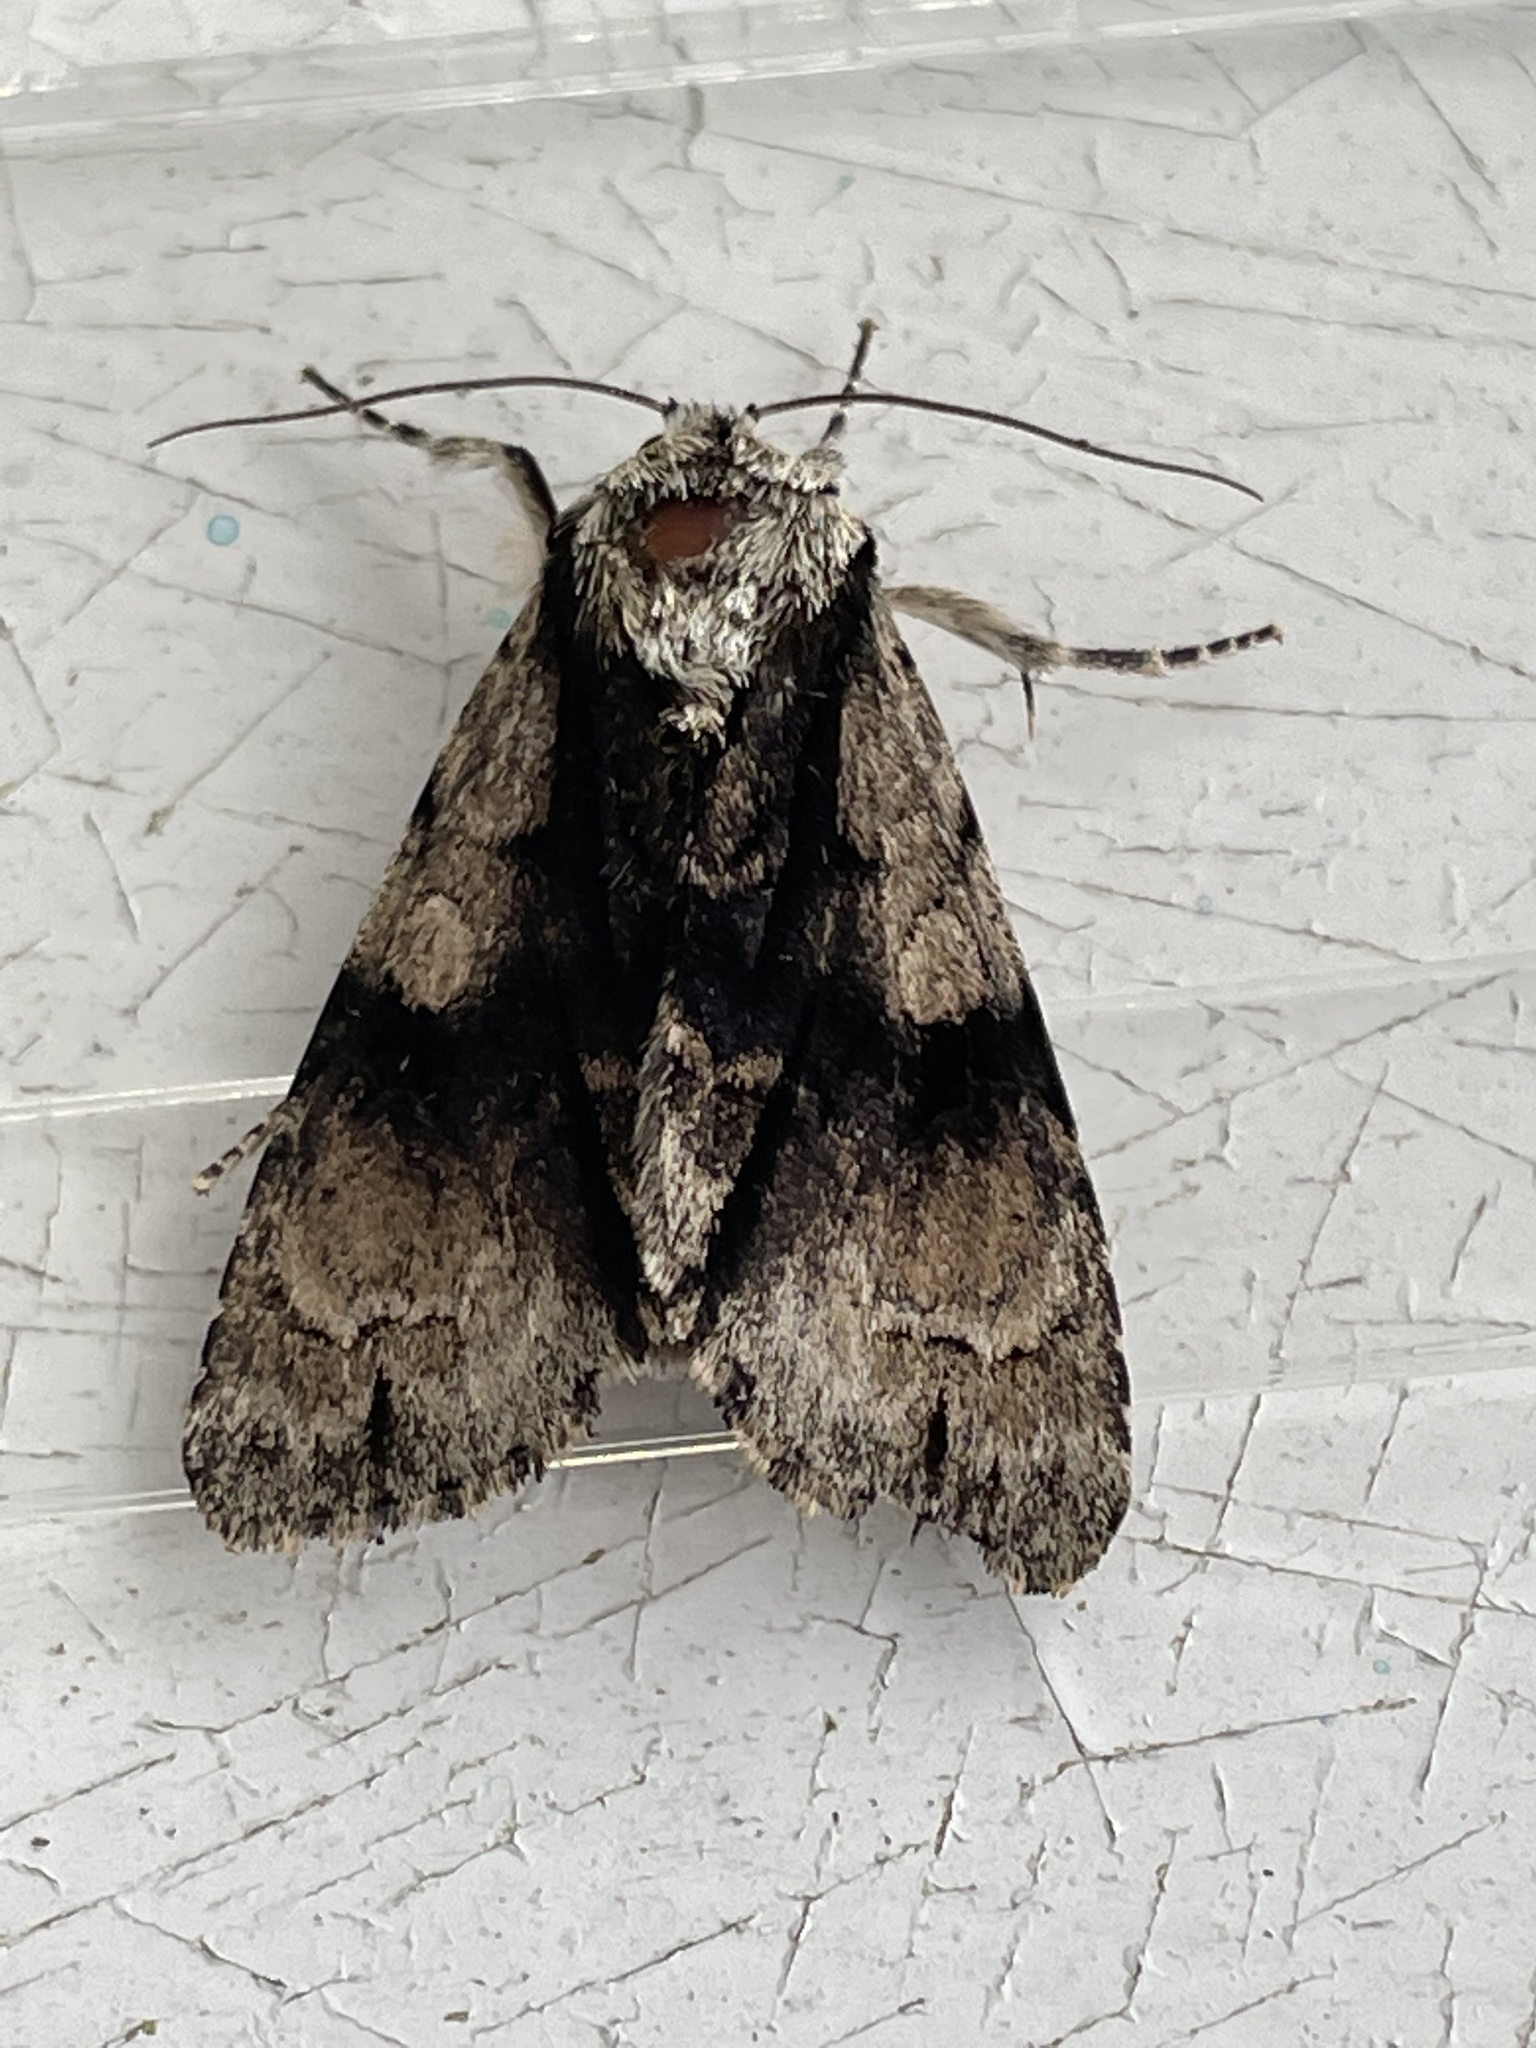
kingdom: Animalia
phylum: Arthropoda
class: Insecta
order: Lepidoptera
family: Noctuidae
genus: Acronicta
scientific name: Acronicta alni
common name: Alder moth
